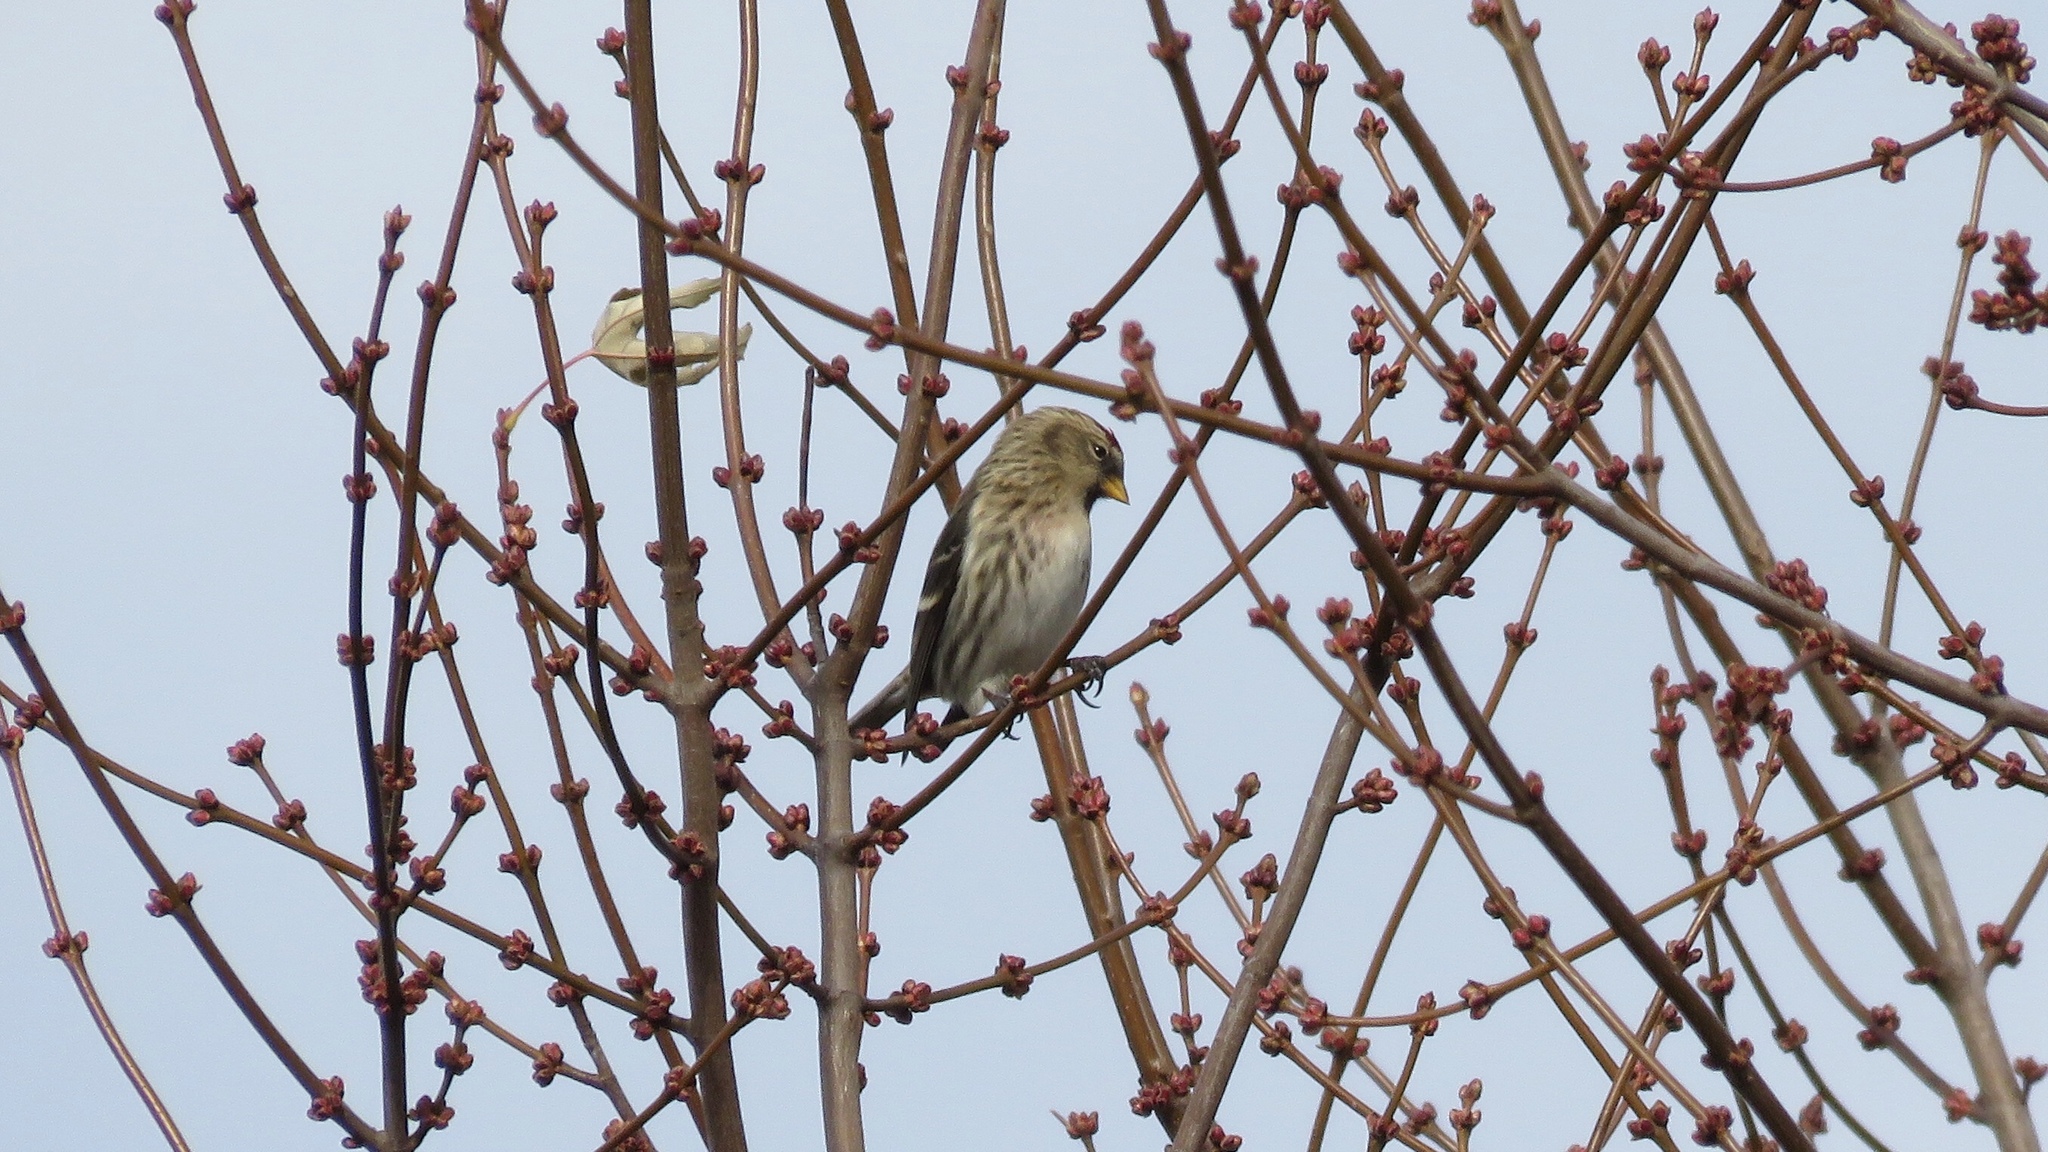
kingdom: Animalia
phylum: Chordata
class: Aves
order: Passeriformes
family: Fringillidae
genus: Acanthis
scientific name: Acanthis flammea
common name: Common redpoll
